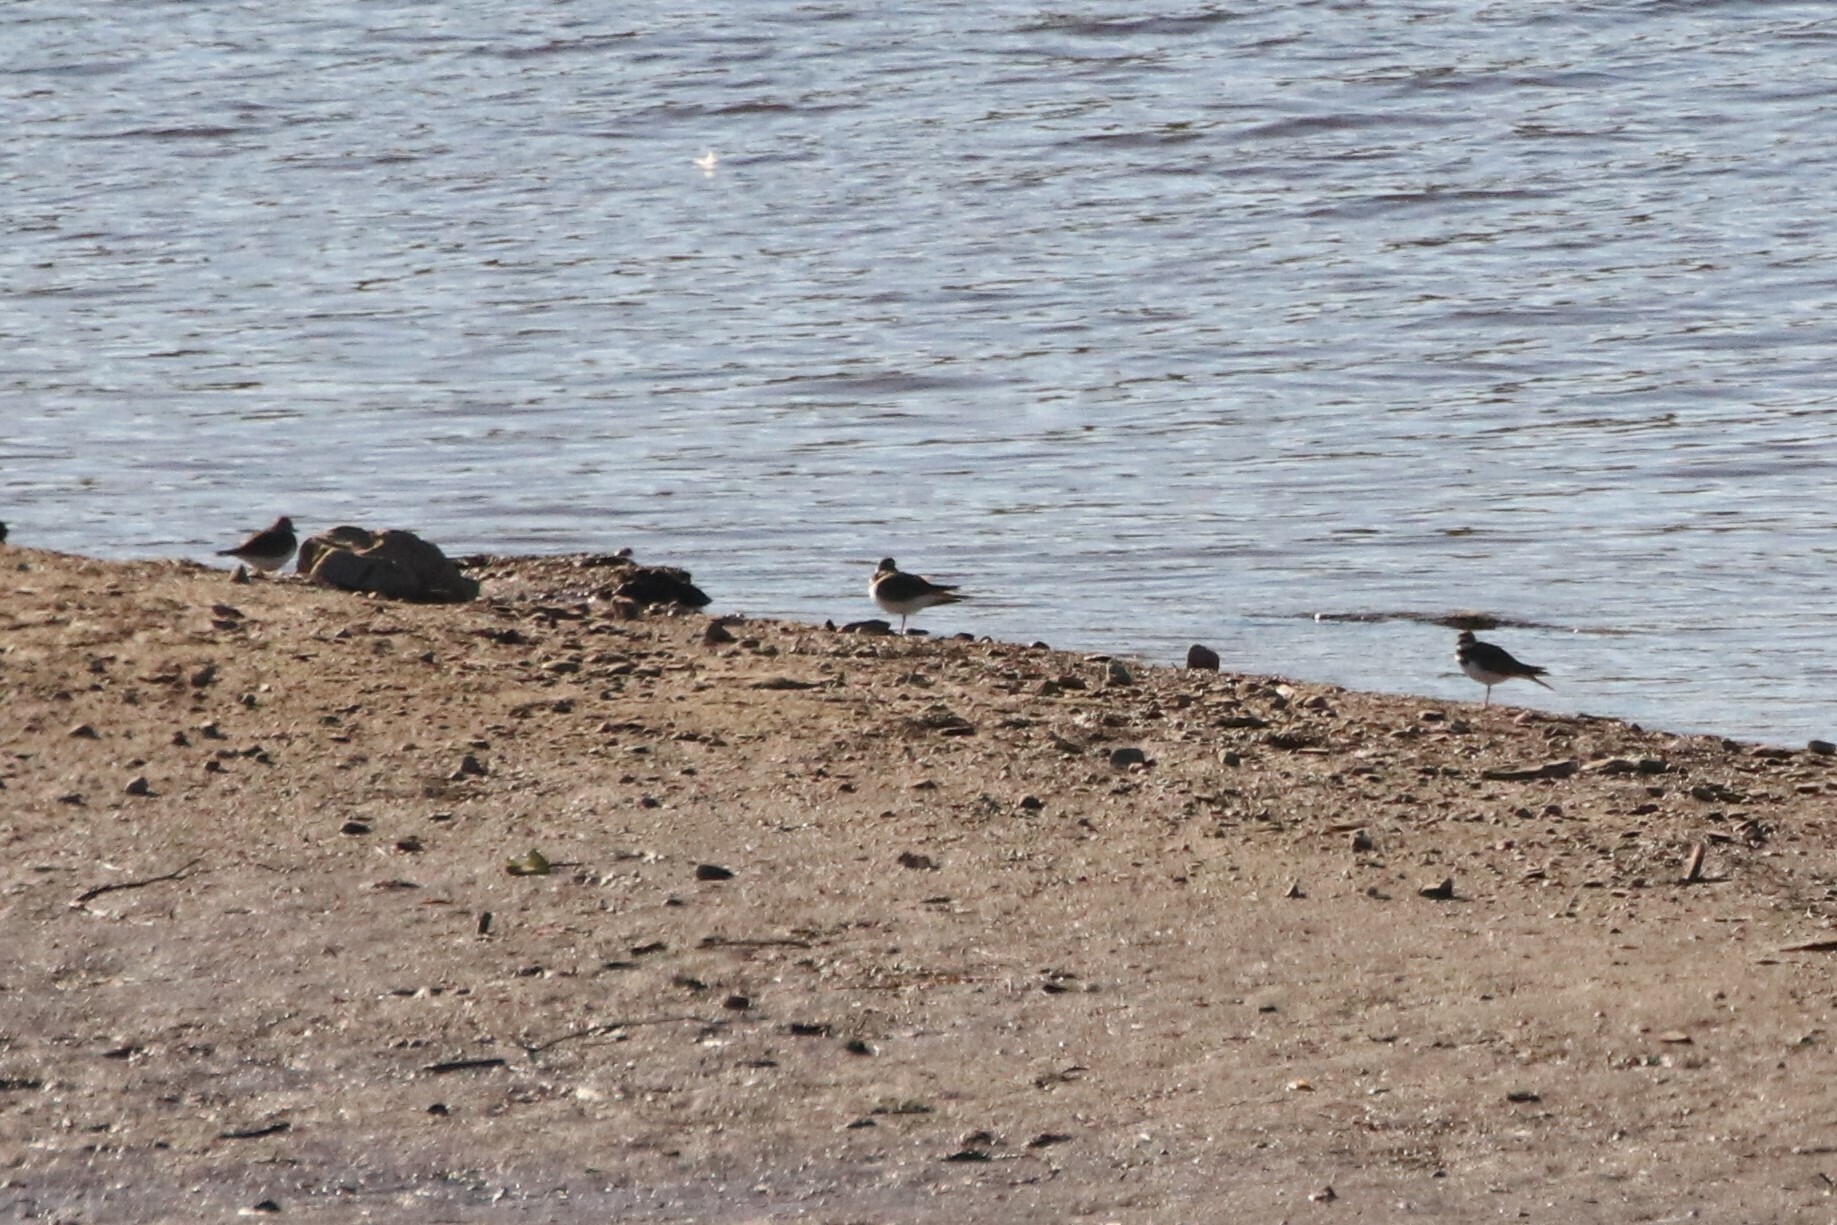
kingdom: Animalia
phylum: Chordata
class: Aves
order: Charadriiformes
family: Charadriidae
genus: Charadrius
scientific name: Charadrius vociferus
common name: Killdeer
